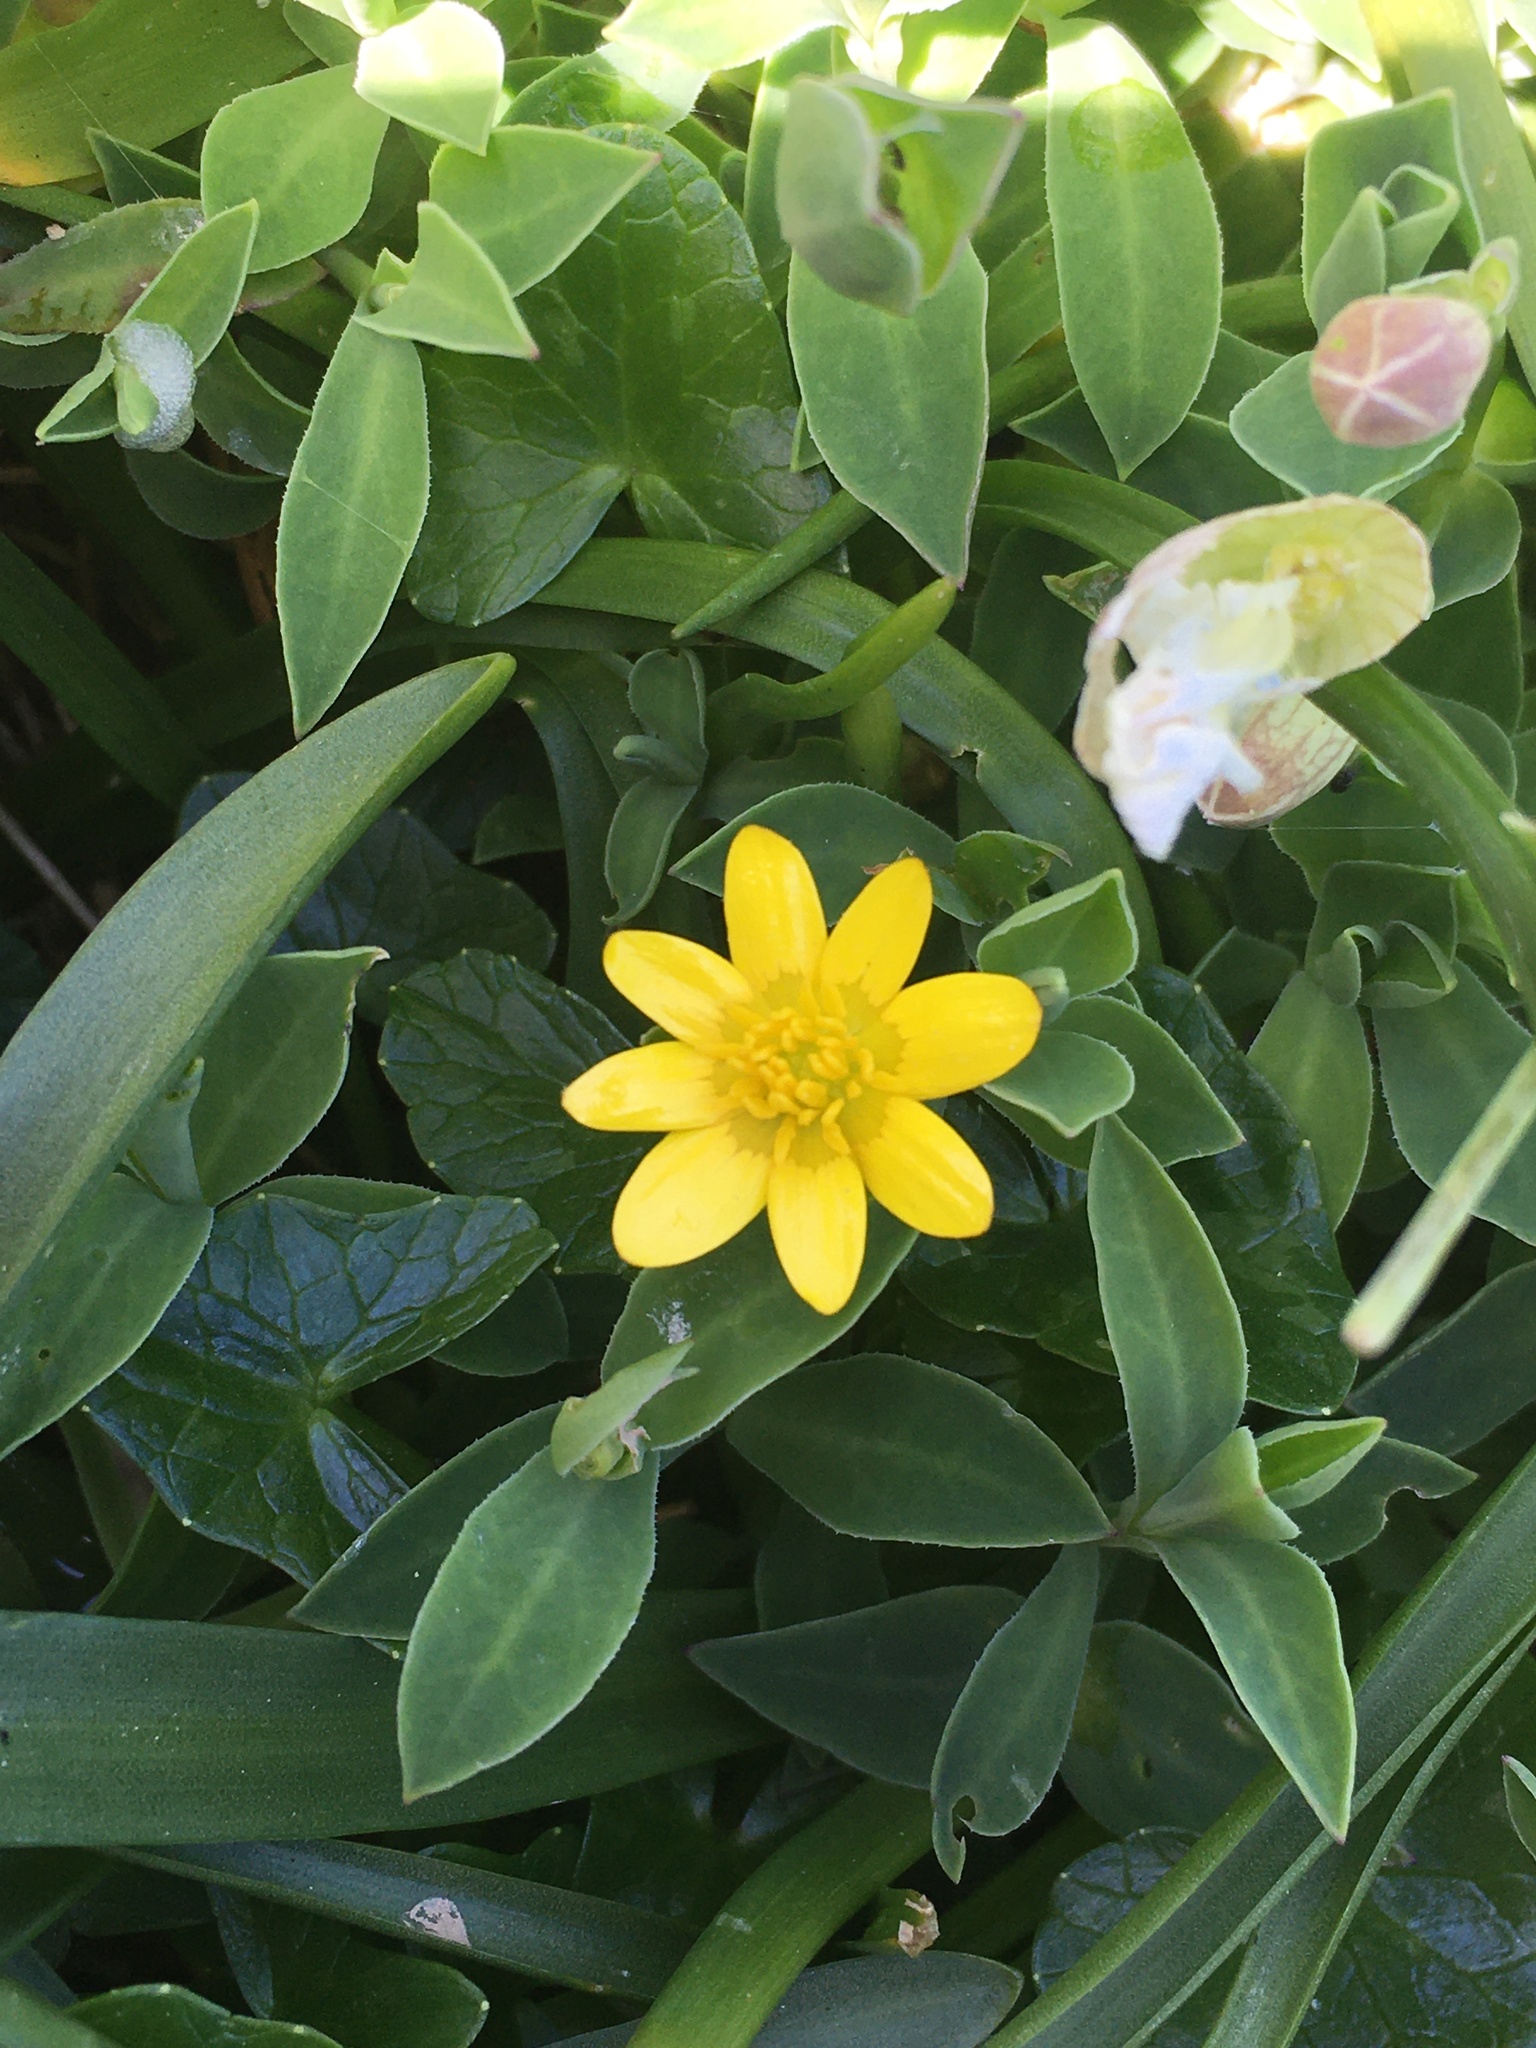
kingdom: Plantae
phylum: Tracheophyta
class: Magnoliopsida
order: Ranunculales
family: Ranunculaceae
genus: Ficaria
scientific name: Ficaria verna
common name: Lesser celandine
